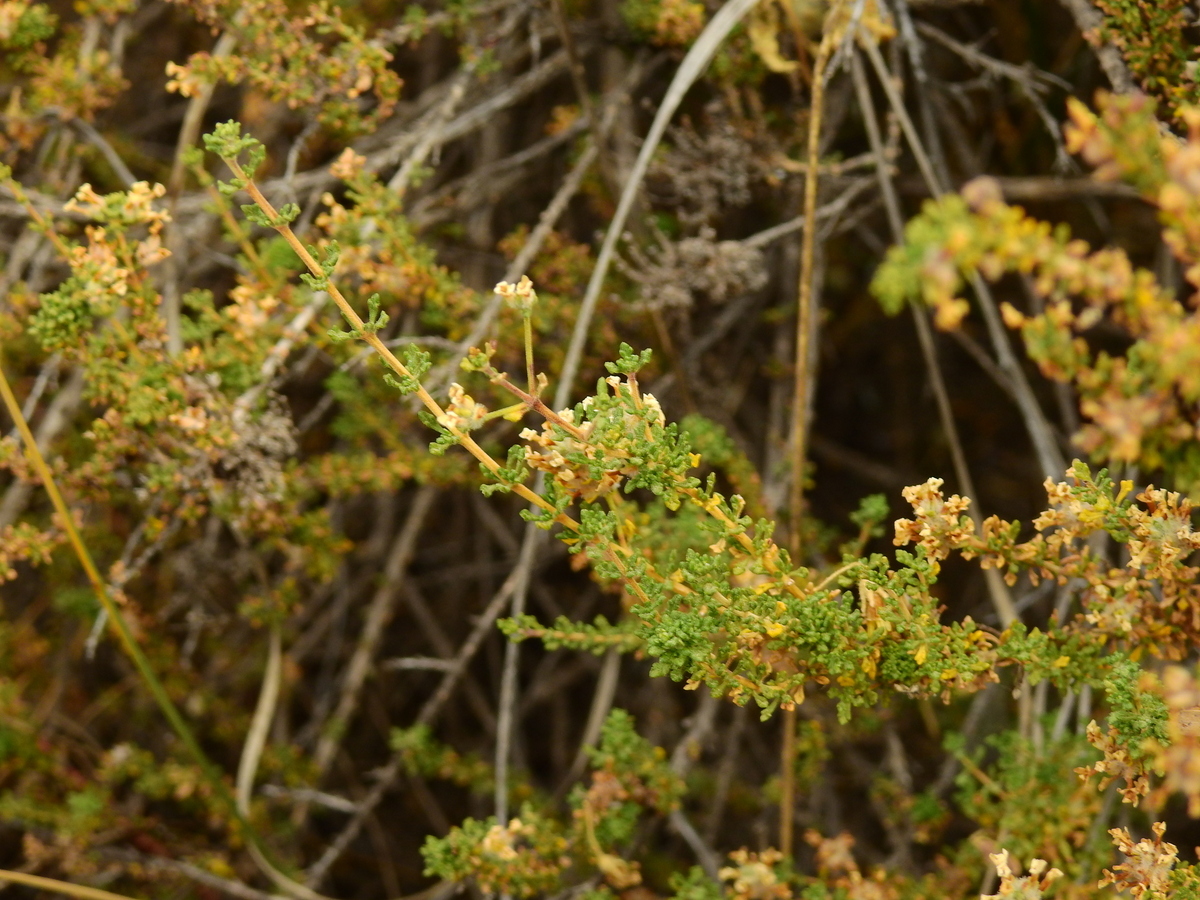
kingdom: Plantae
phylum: Tracheophyta
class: Magnoliopsida
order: Lamiales
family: Verbenaceae
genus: Acantholippia
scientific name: Acantholippia seriphioides
